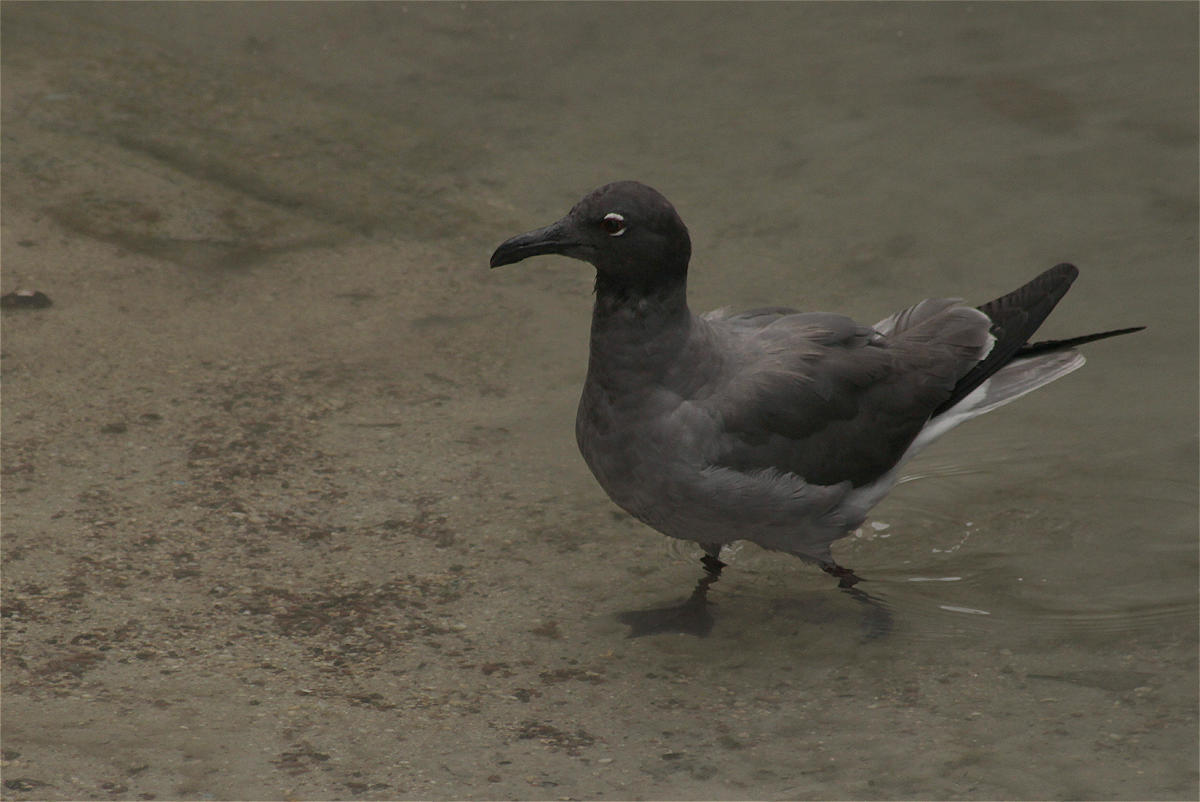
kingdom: Animalia
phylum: Chordata
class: Aves
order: Charadriiformes
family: Laridae
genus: Leucophaeus
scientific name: Leucophaeus fuliginosus
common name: Lava gull
